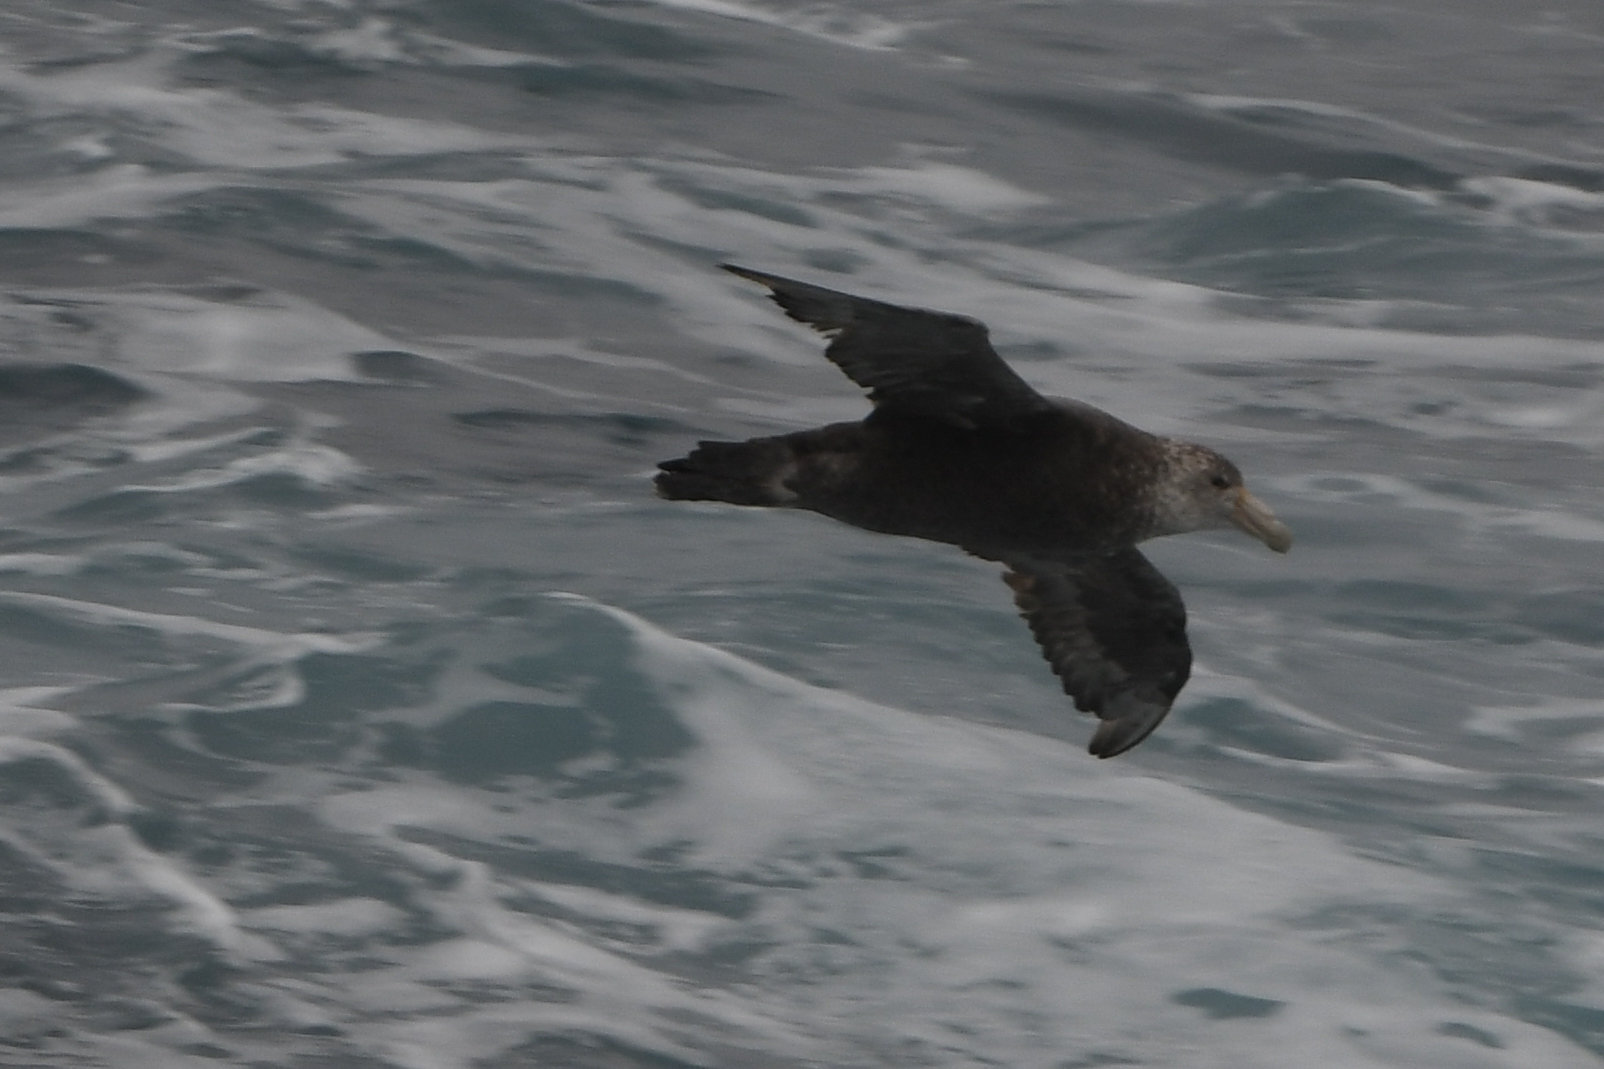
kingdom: Animalia
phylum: Chordata
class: Aves
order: Procellariiformes
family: Procellariidae
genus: Macronectes
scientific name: Macronectes giganteus
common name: Southern giant petrel
